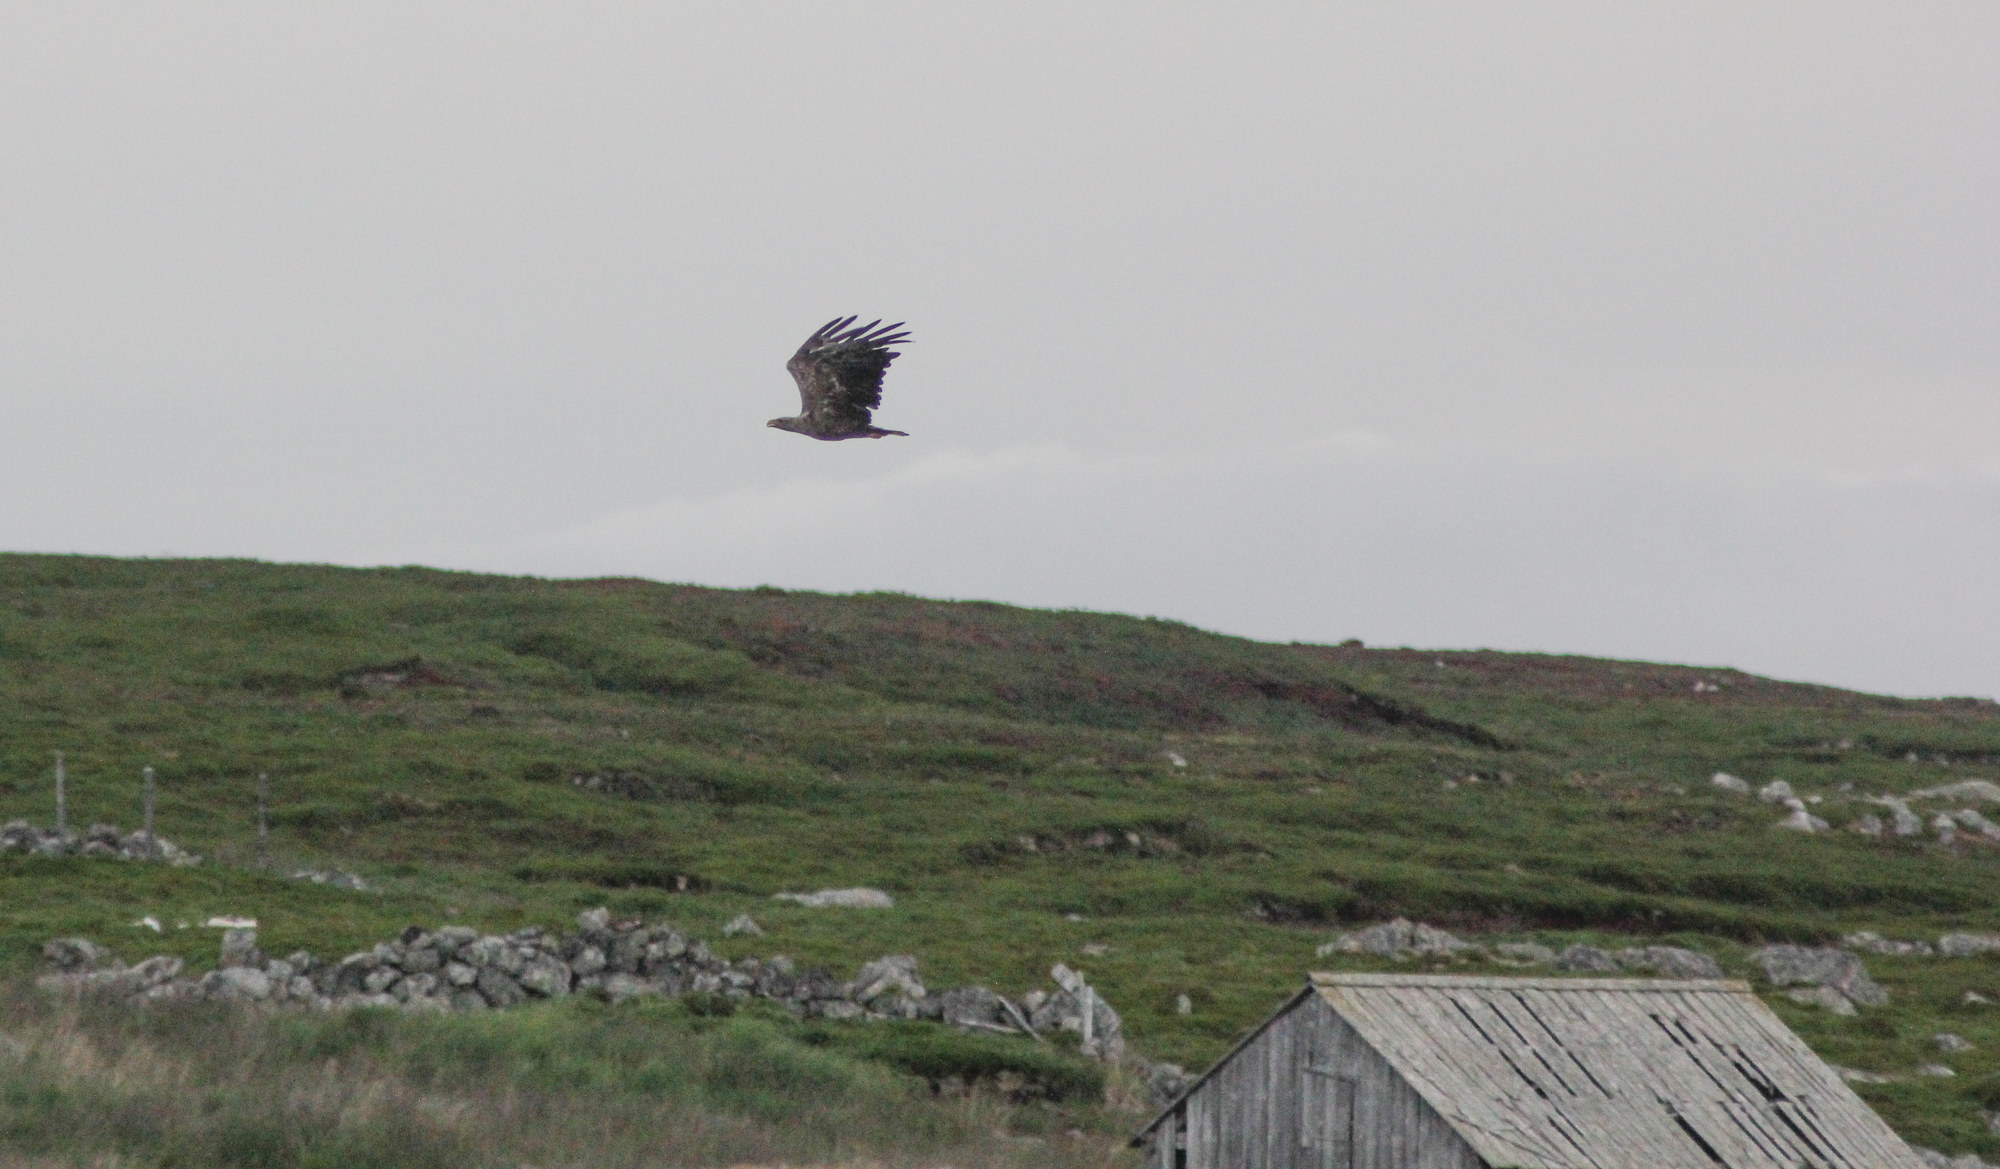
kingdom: Animalia
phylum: Chordata
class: Aves
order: Accipitriformes
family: Accipitridae
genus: Haliaeetus
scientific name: Haliaeetus albicilla
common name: White-tailed eagle
